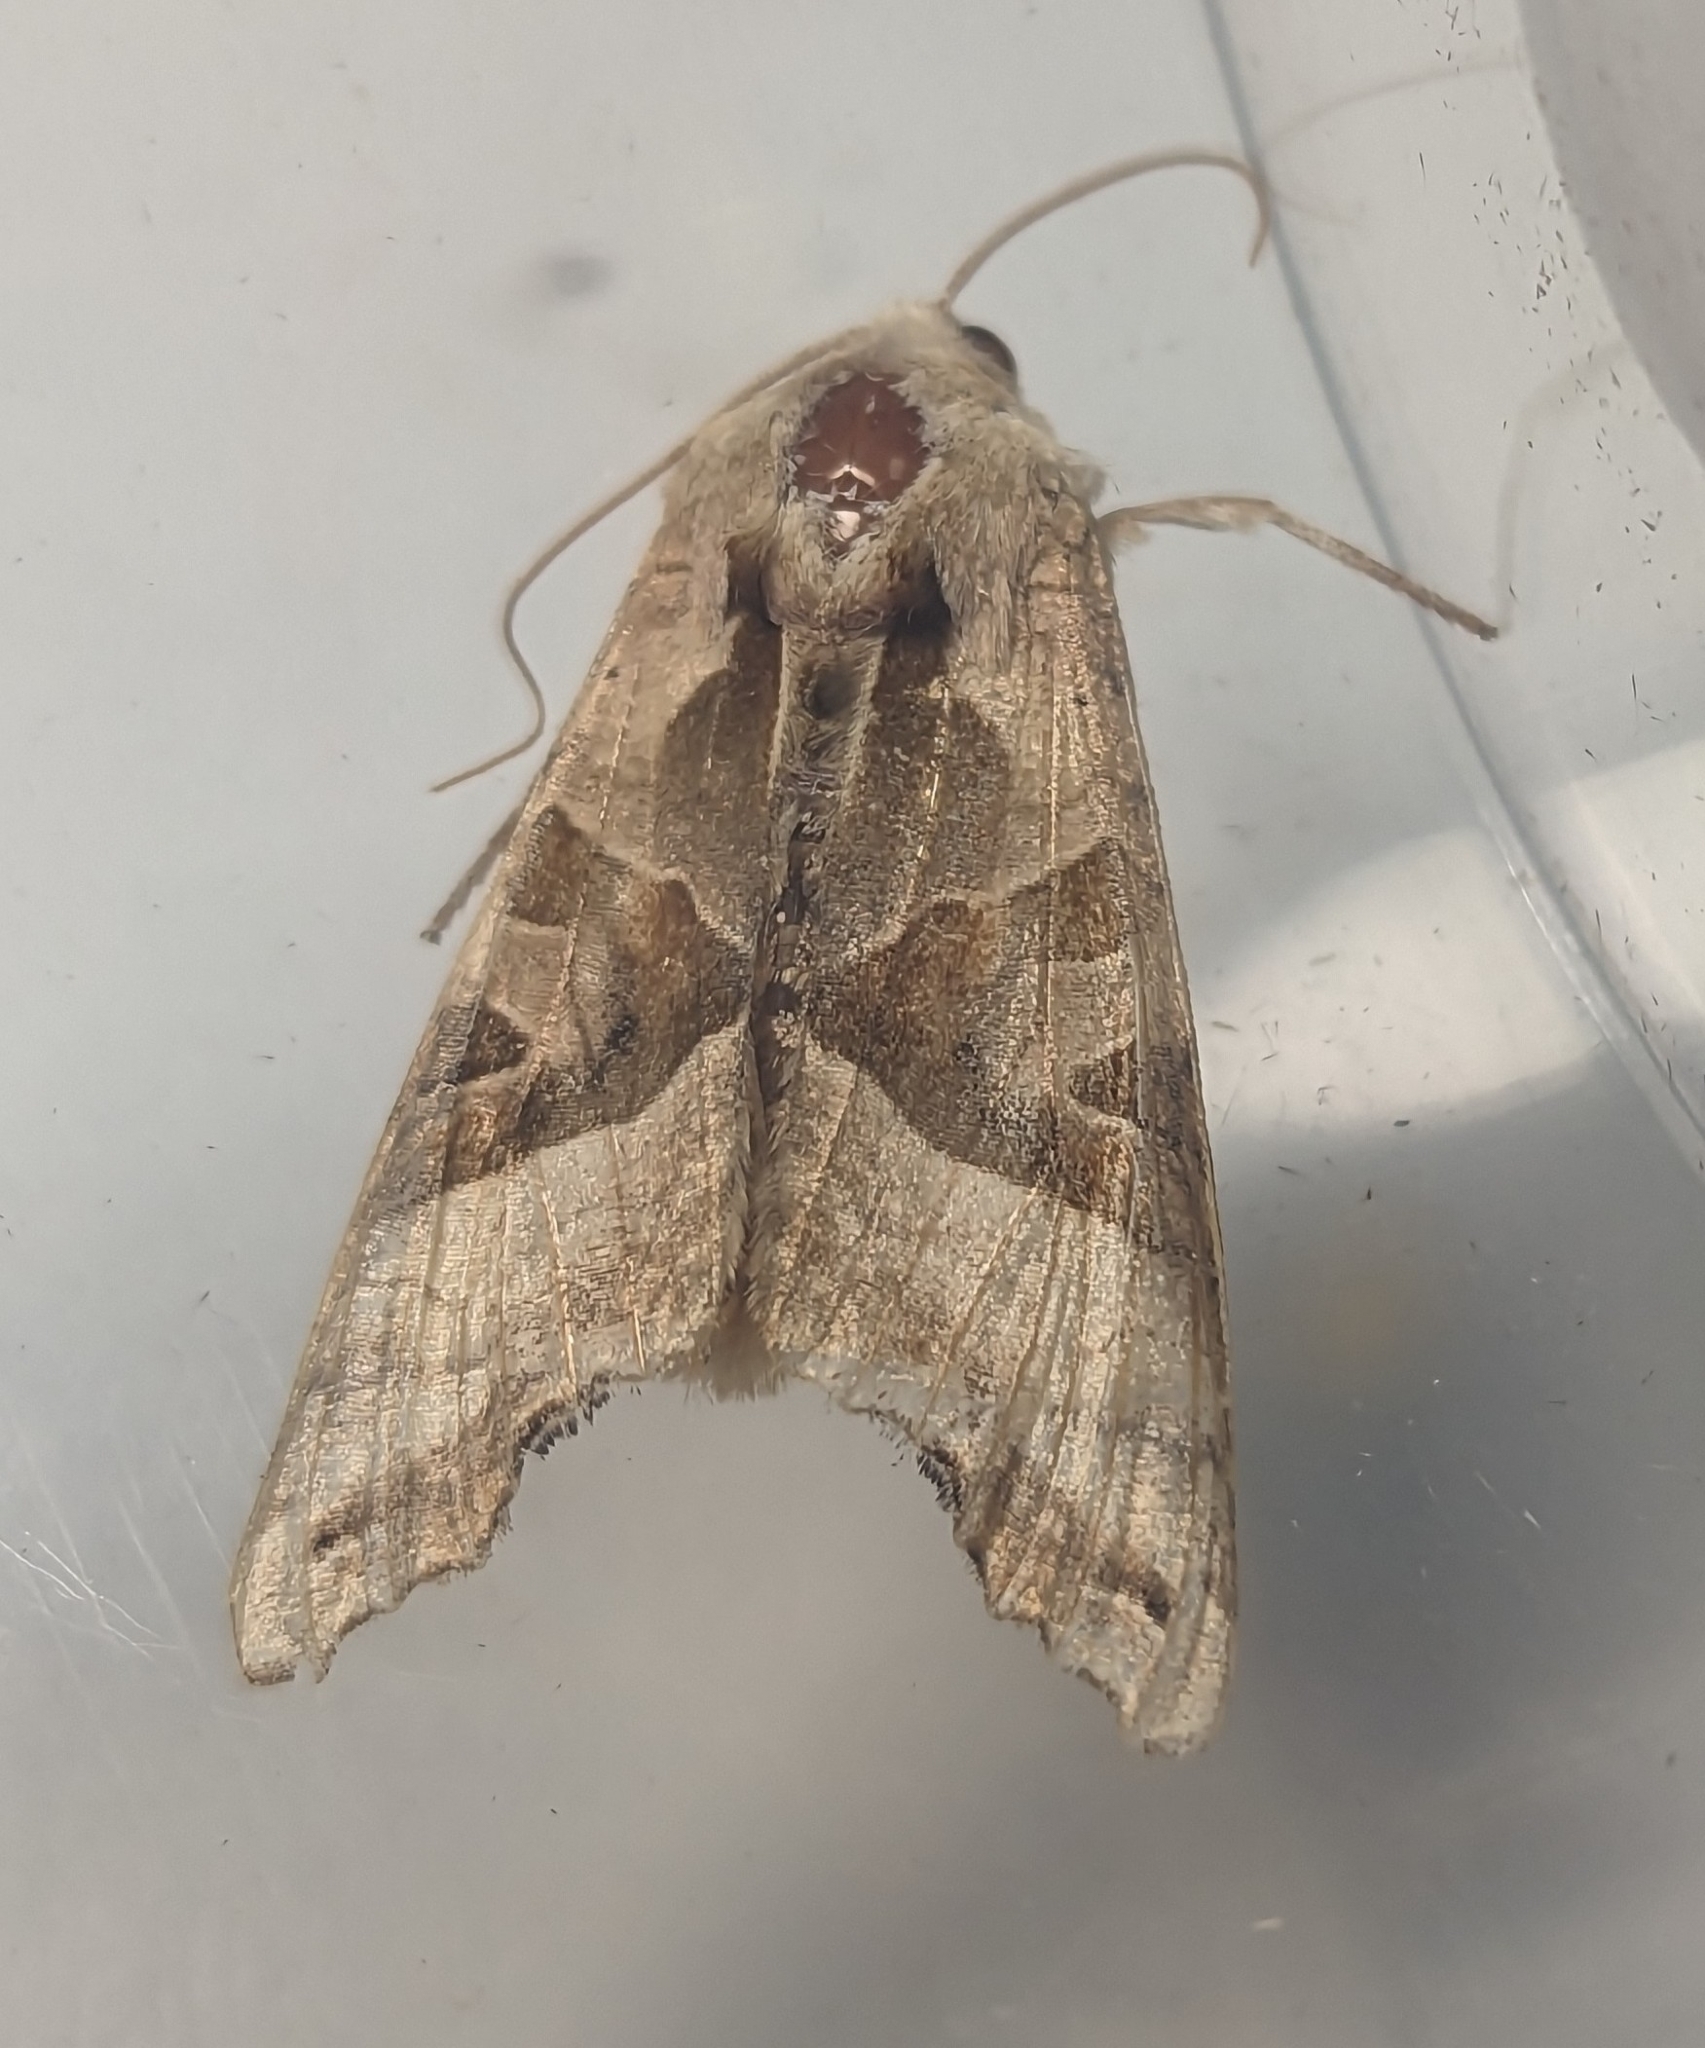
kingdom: Animalia
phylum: Arthropoda
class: Insecta
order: Lepidoptera
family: Noctuidae
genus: Phlogophora
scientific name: Phlogophora meticulosa
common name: Angle shades
